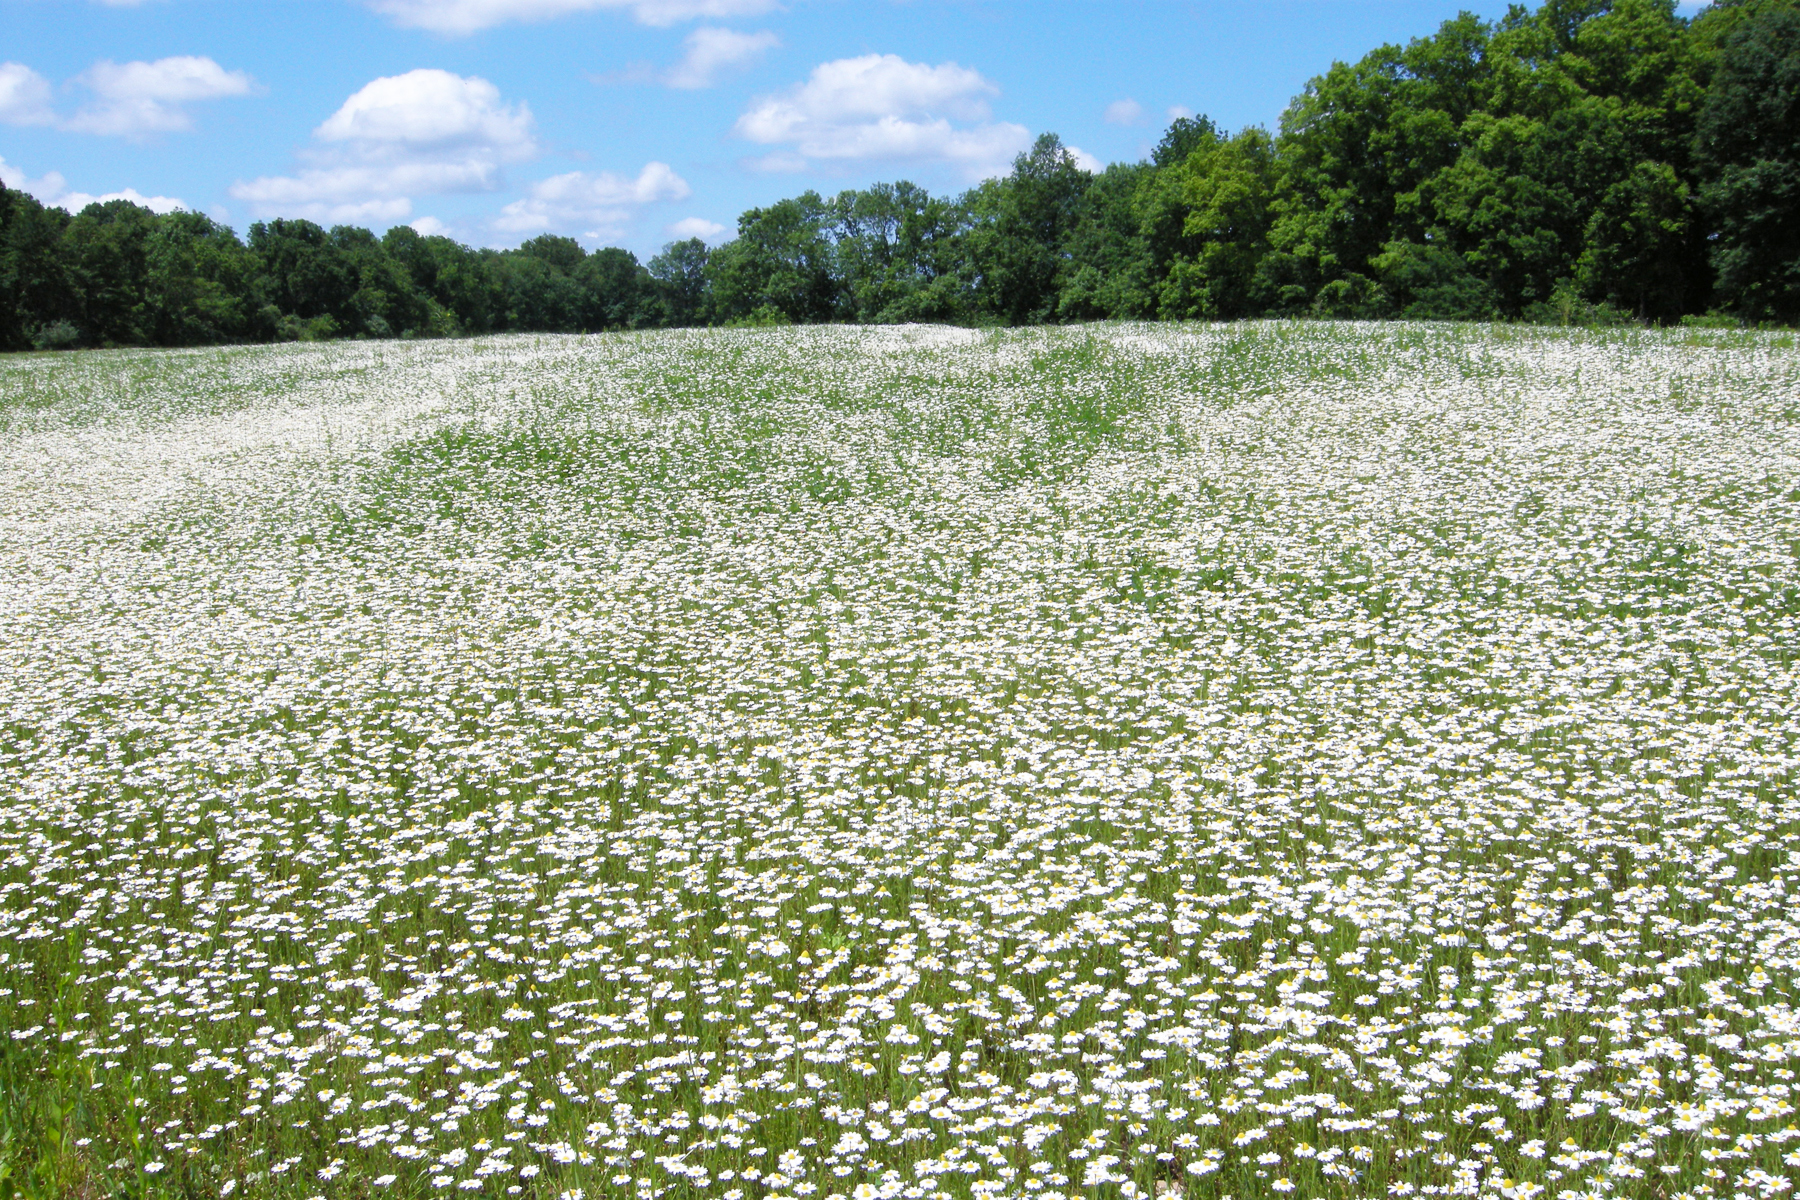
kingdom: Plantae
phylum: Tracheophyta
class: Magnoliopsida
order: Asterales
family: Asteraceae
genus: Matricaria
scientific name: Matricaria chamomilla
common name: Scented mayweed
